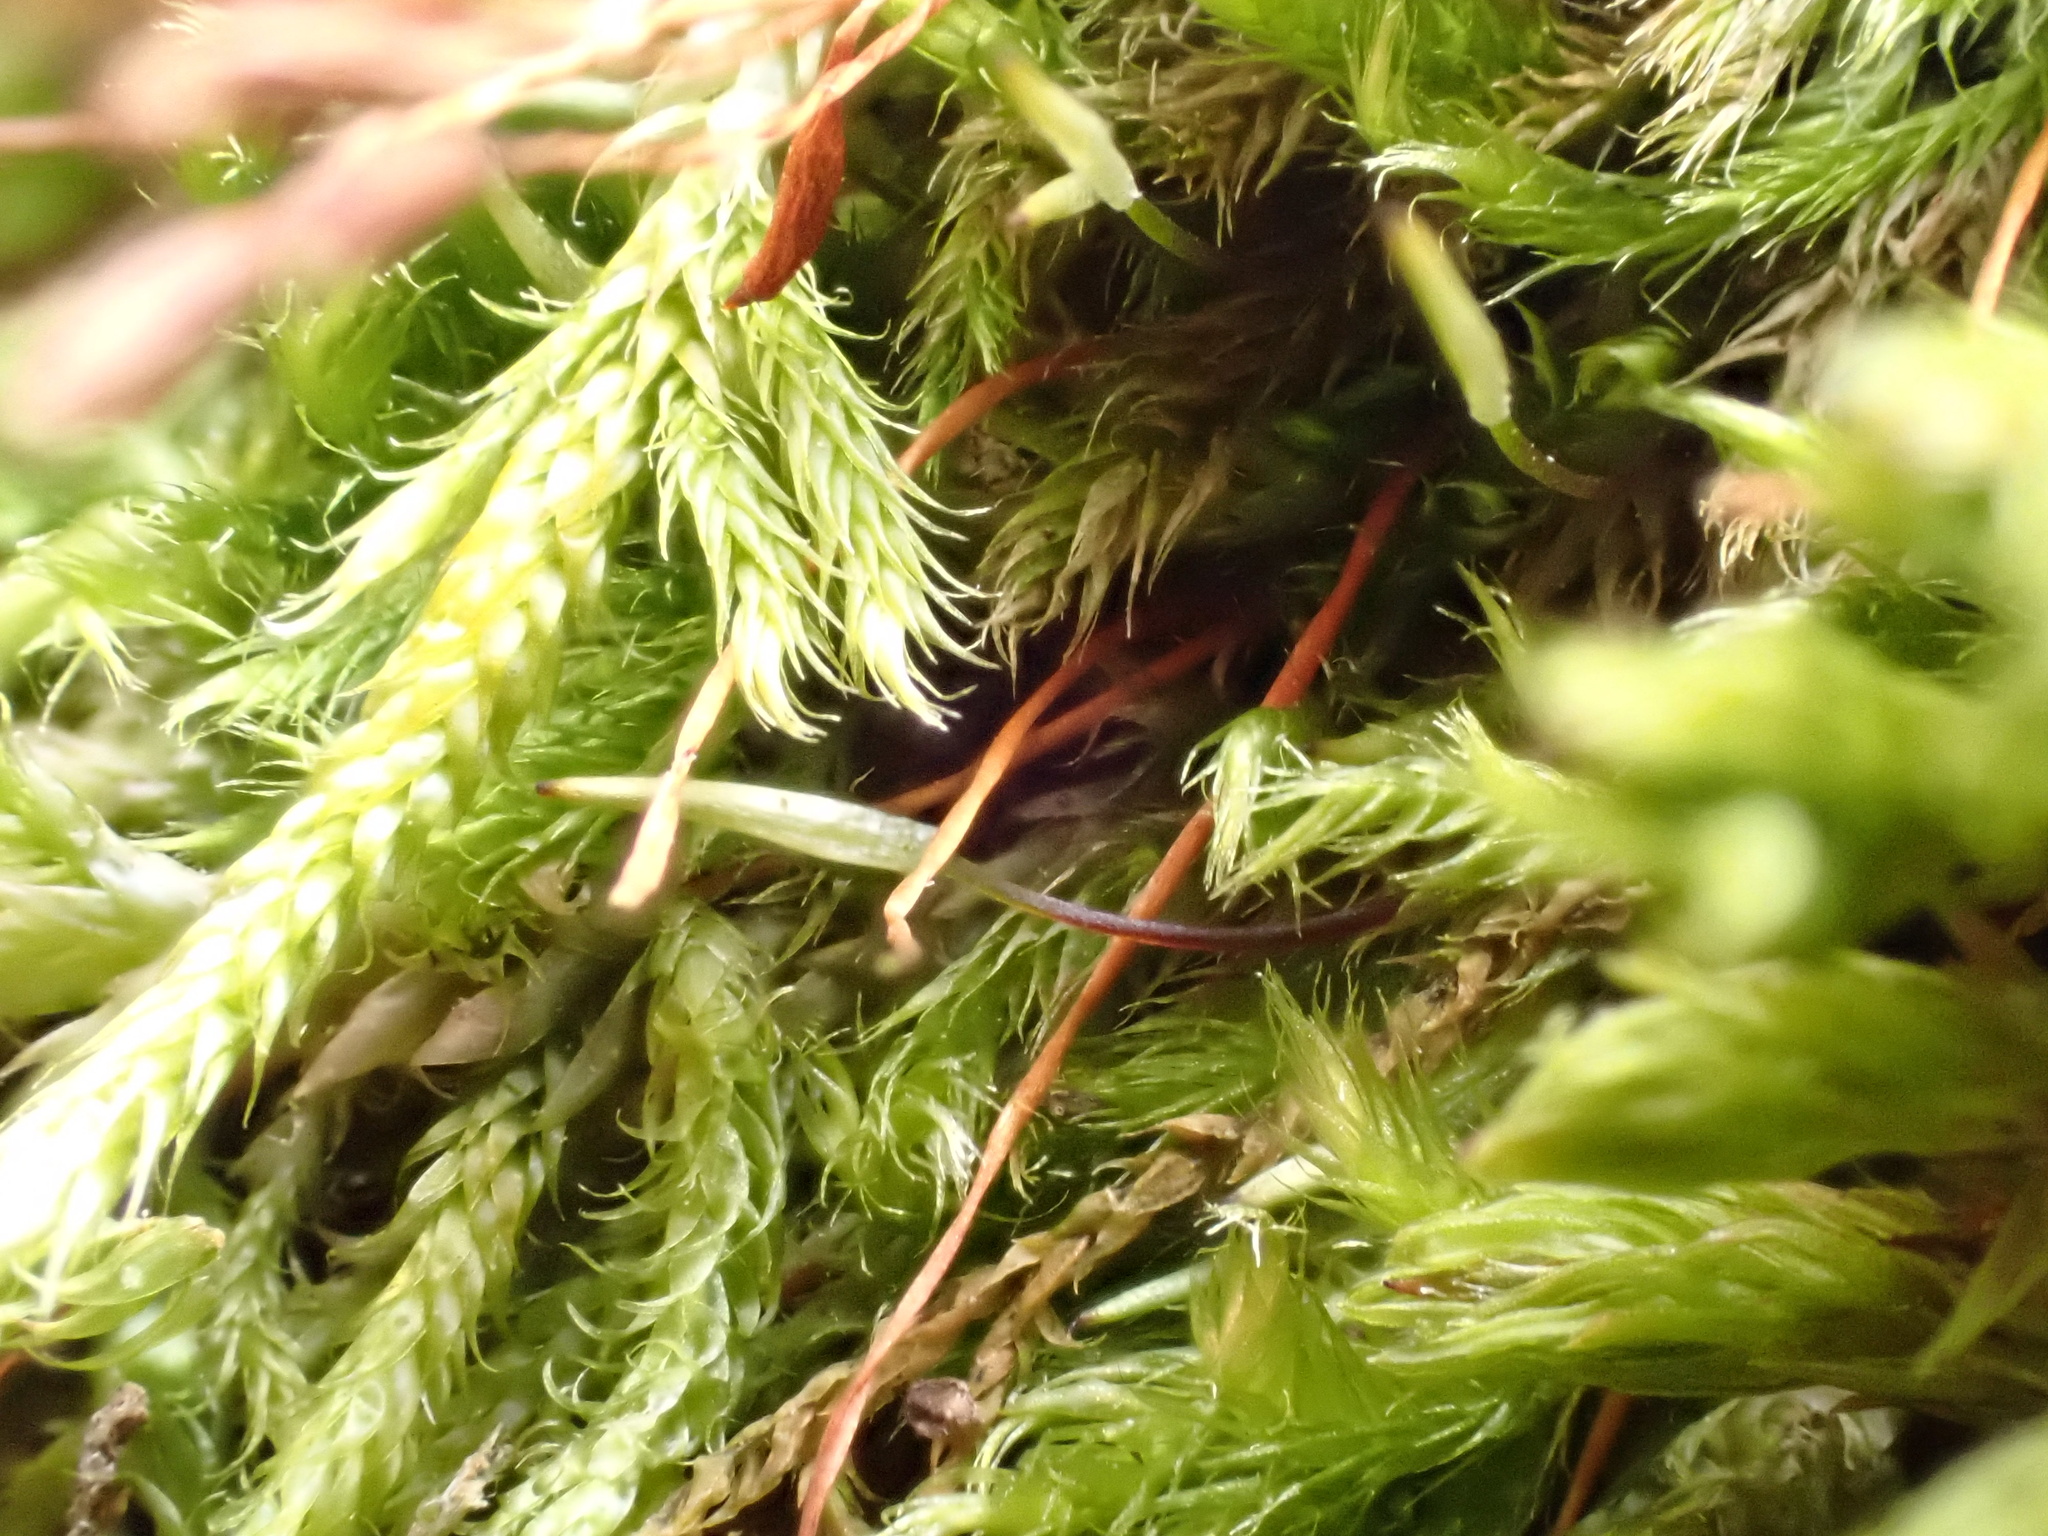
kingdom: Plantae
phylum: Bryophyta
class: Bryopsida
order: Hypnales
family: Pylaisiaceae
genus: Pylaisia
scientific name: Pylaisia polyantha
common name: Many-flowered leskea
